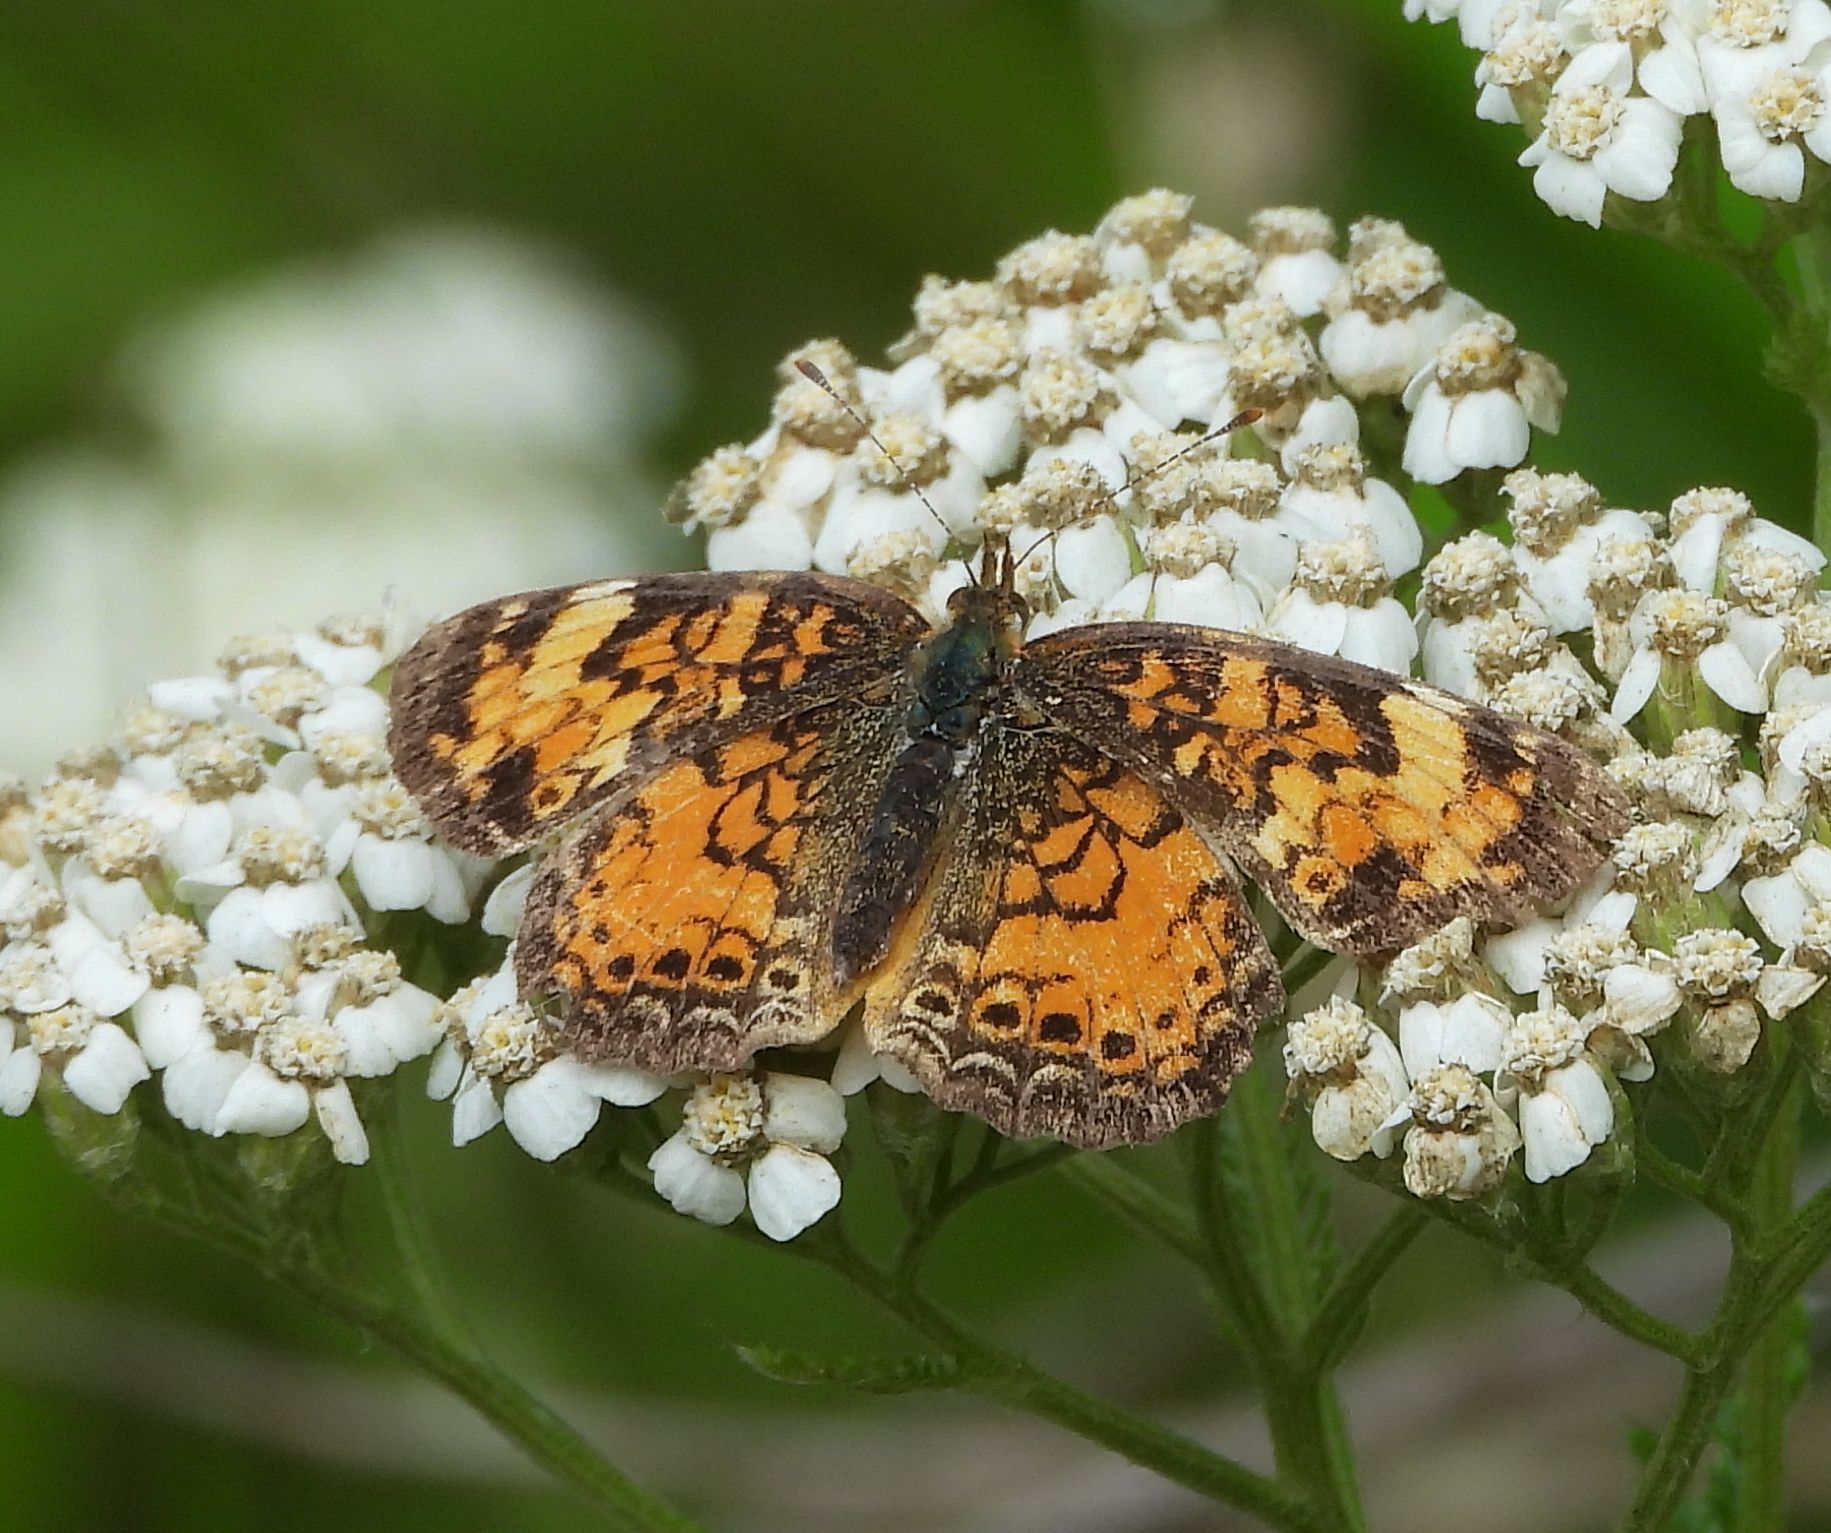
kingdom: Animalia
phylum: Arthropoda
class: Insecta
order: Lepidoptera
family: Nymphalidae
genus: Phyciodes
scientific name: Phyciodes tharos
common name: Pearl crescent
